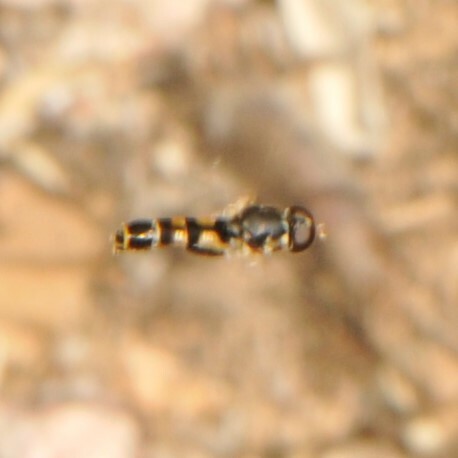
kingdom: Animalia
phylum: Arthropoda
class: Insecta
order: Diptera
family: Syrphidae
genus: Syritta
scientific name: Syritta pipiens
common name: Hover fly
